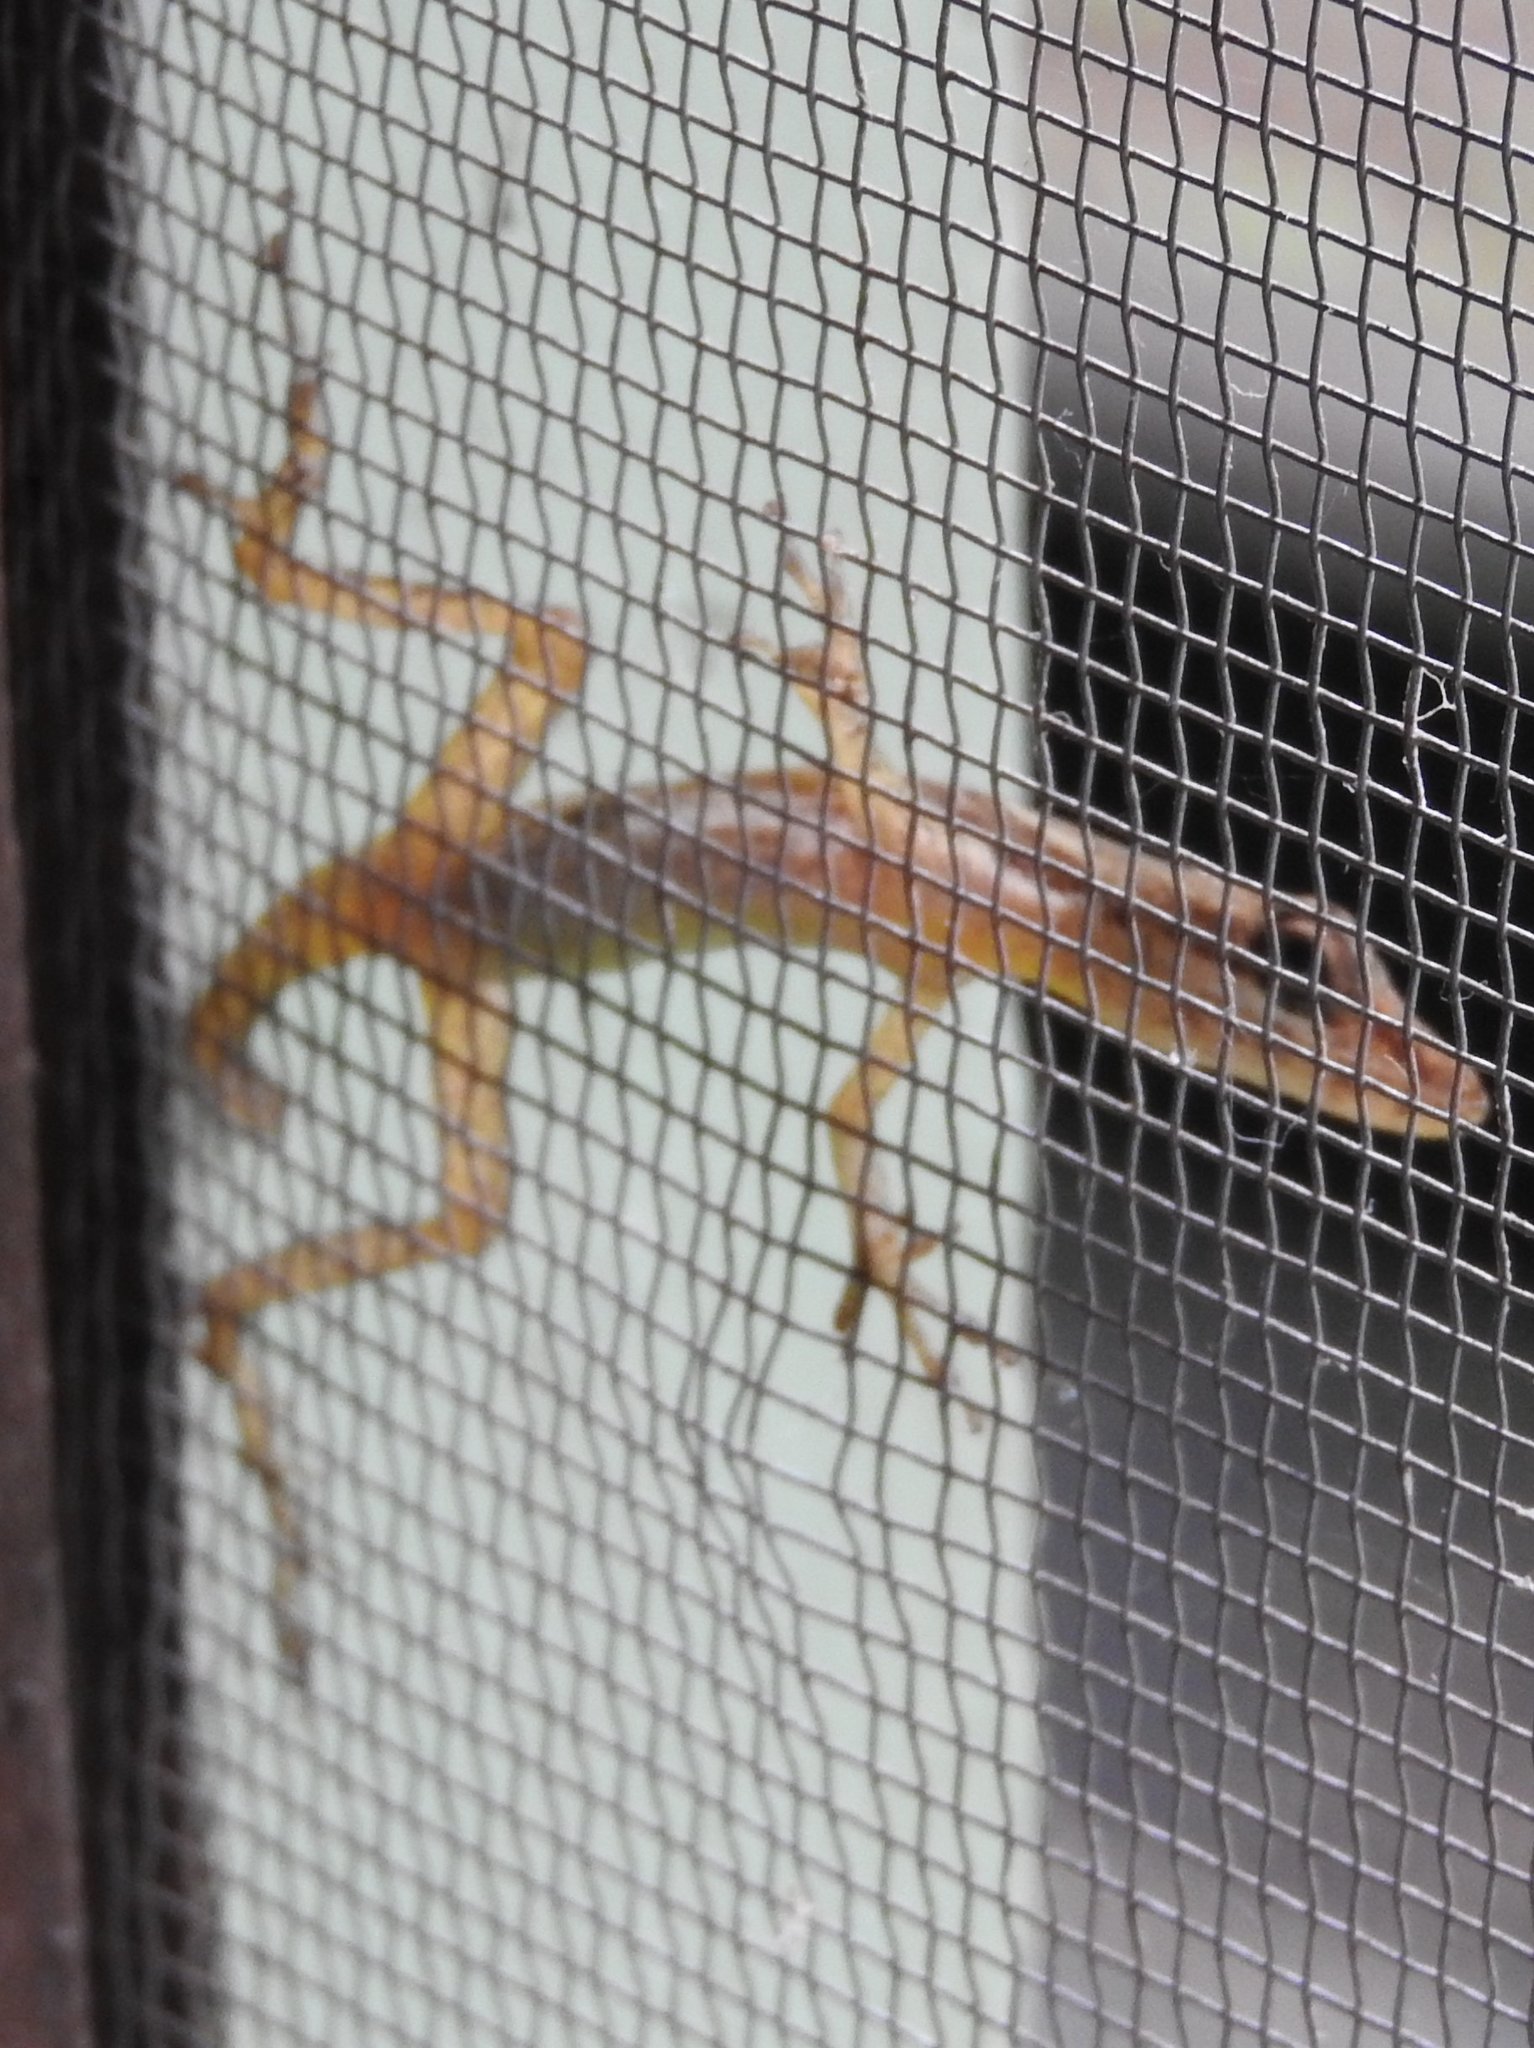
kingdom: Animalia
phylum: Chordata
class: Squamata
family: Dactyloidae
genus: Anolis
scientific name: Anolis limifrons
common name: Border anole
